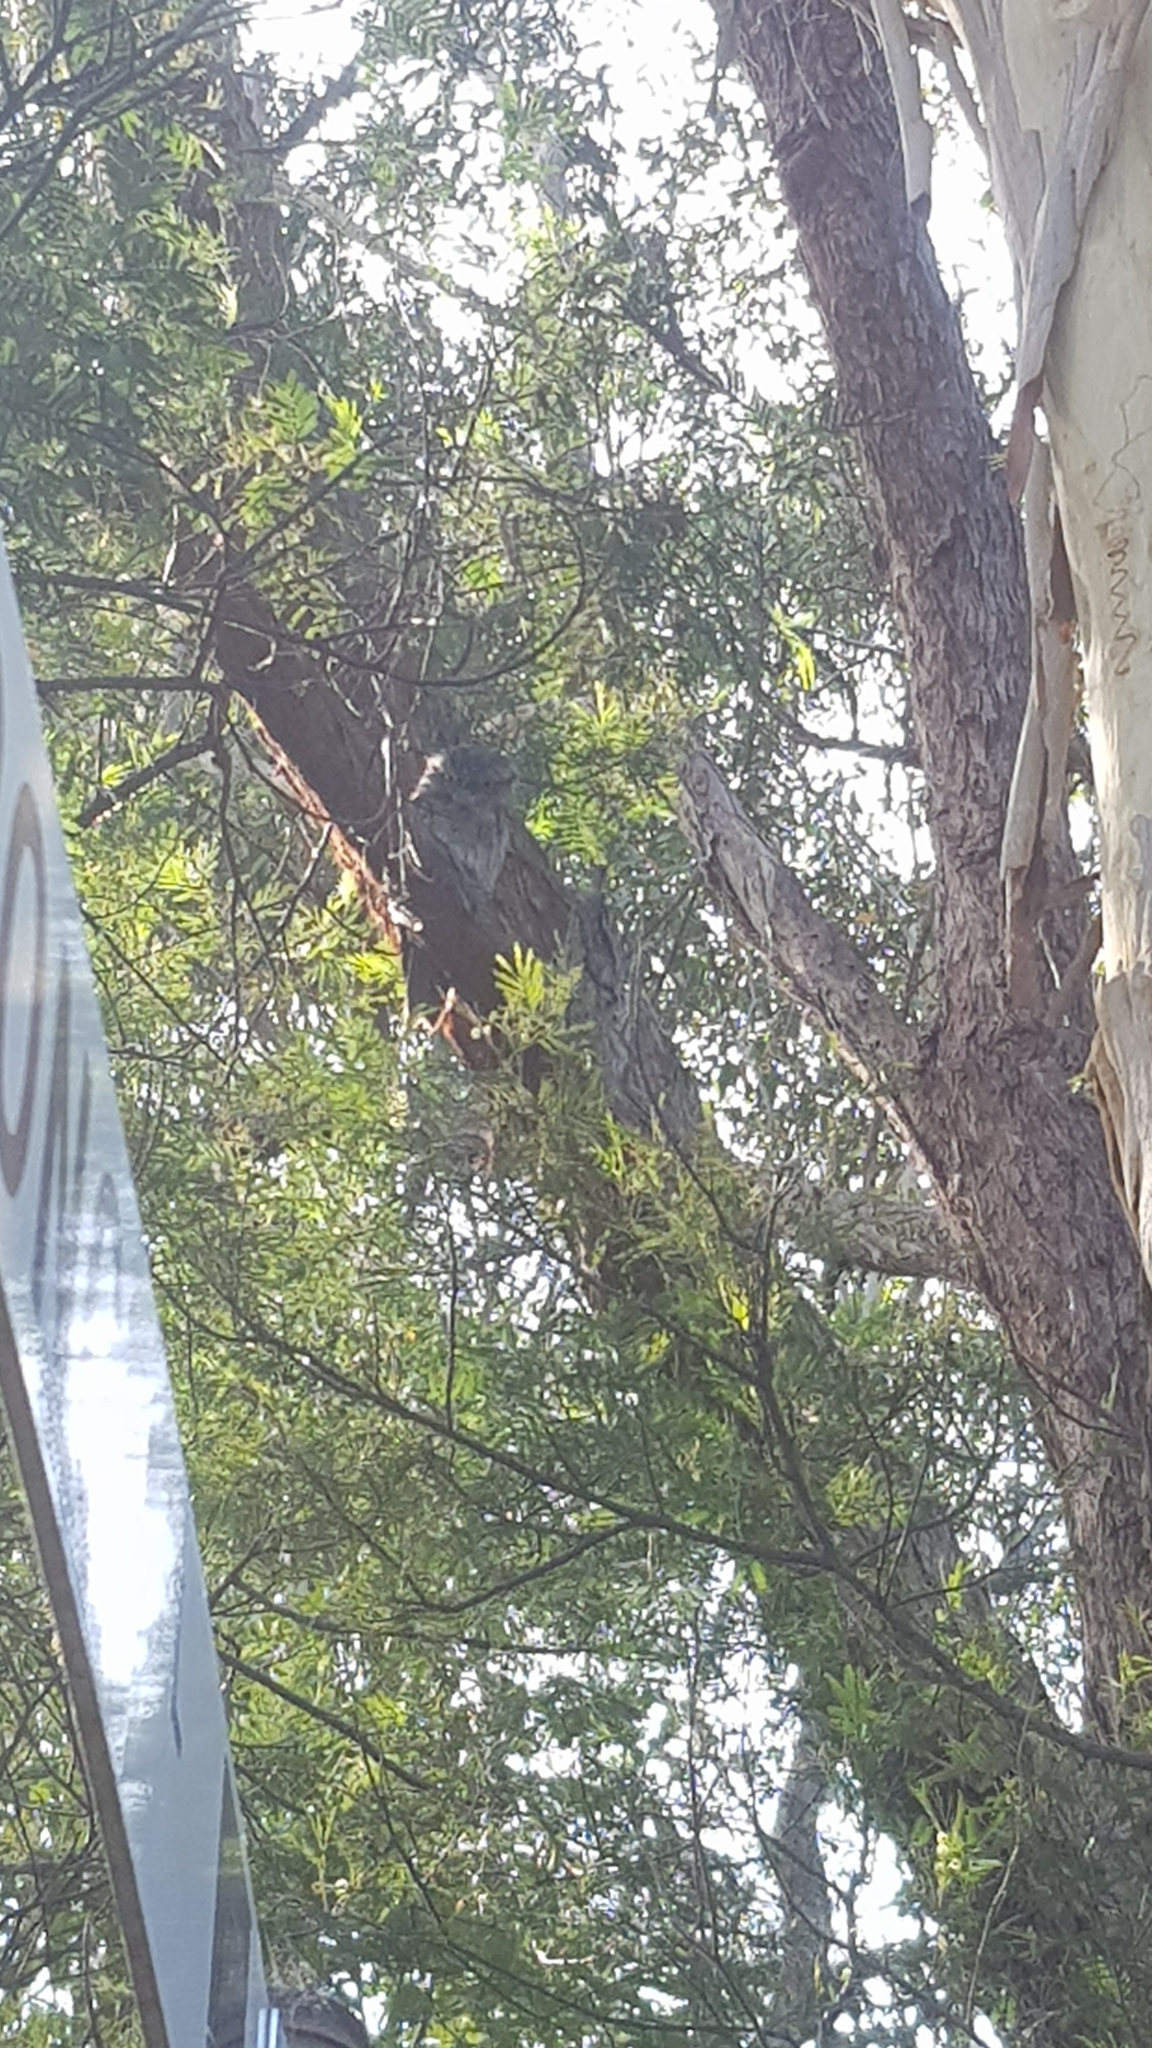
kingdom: Animalia
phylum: Chordata
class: Aves
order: Caprimulgiformes
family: Podargidae
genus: Podargus
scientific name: Podargus strigoides
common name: Tawny frogmouth
